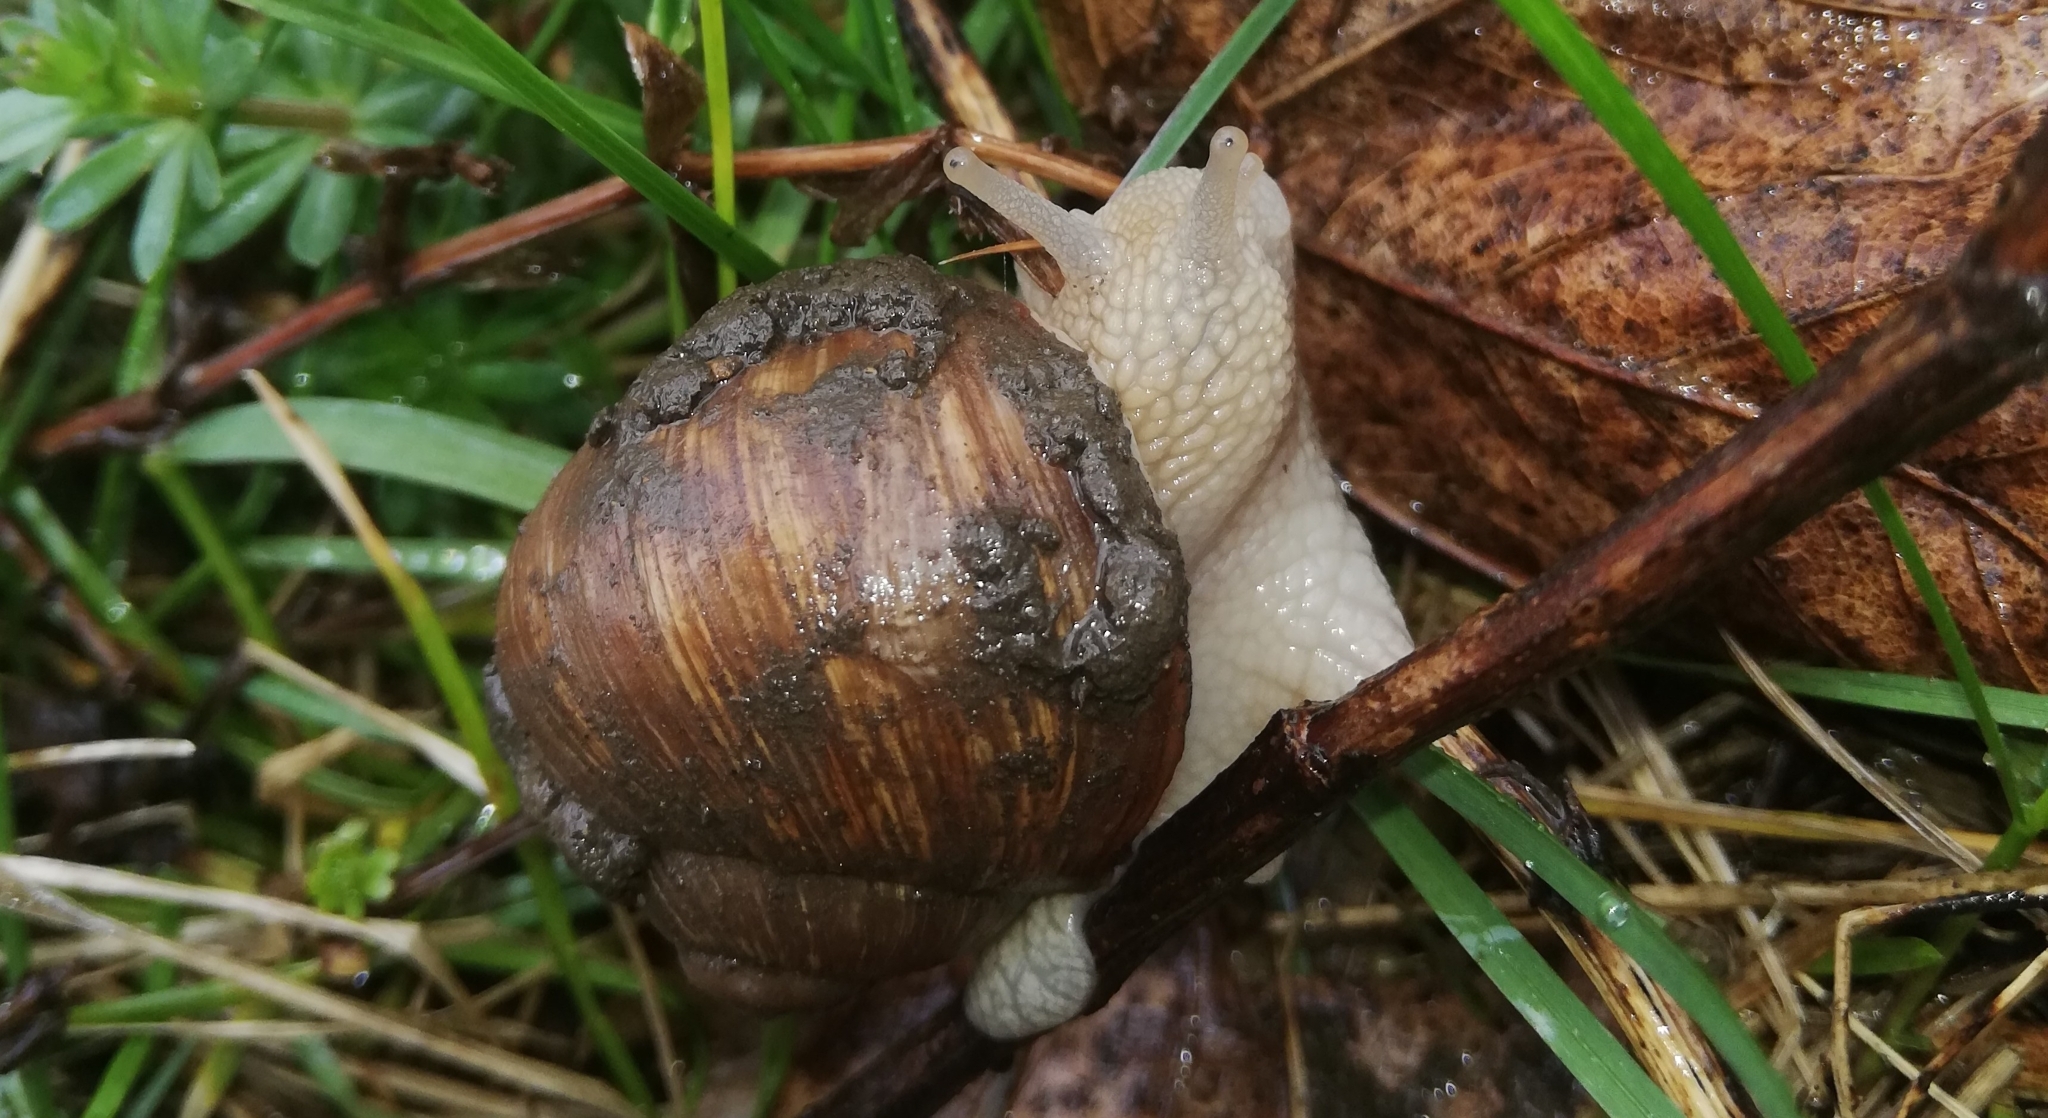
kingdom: Animalia
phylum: Mollusca
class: Gastropoda
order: Stylommatophora
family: Helicidae
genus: Helix
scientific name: Helix pomatia
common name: Roman snail
